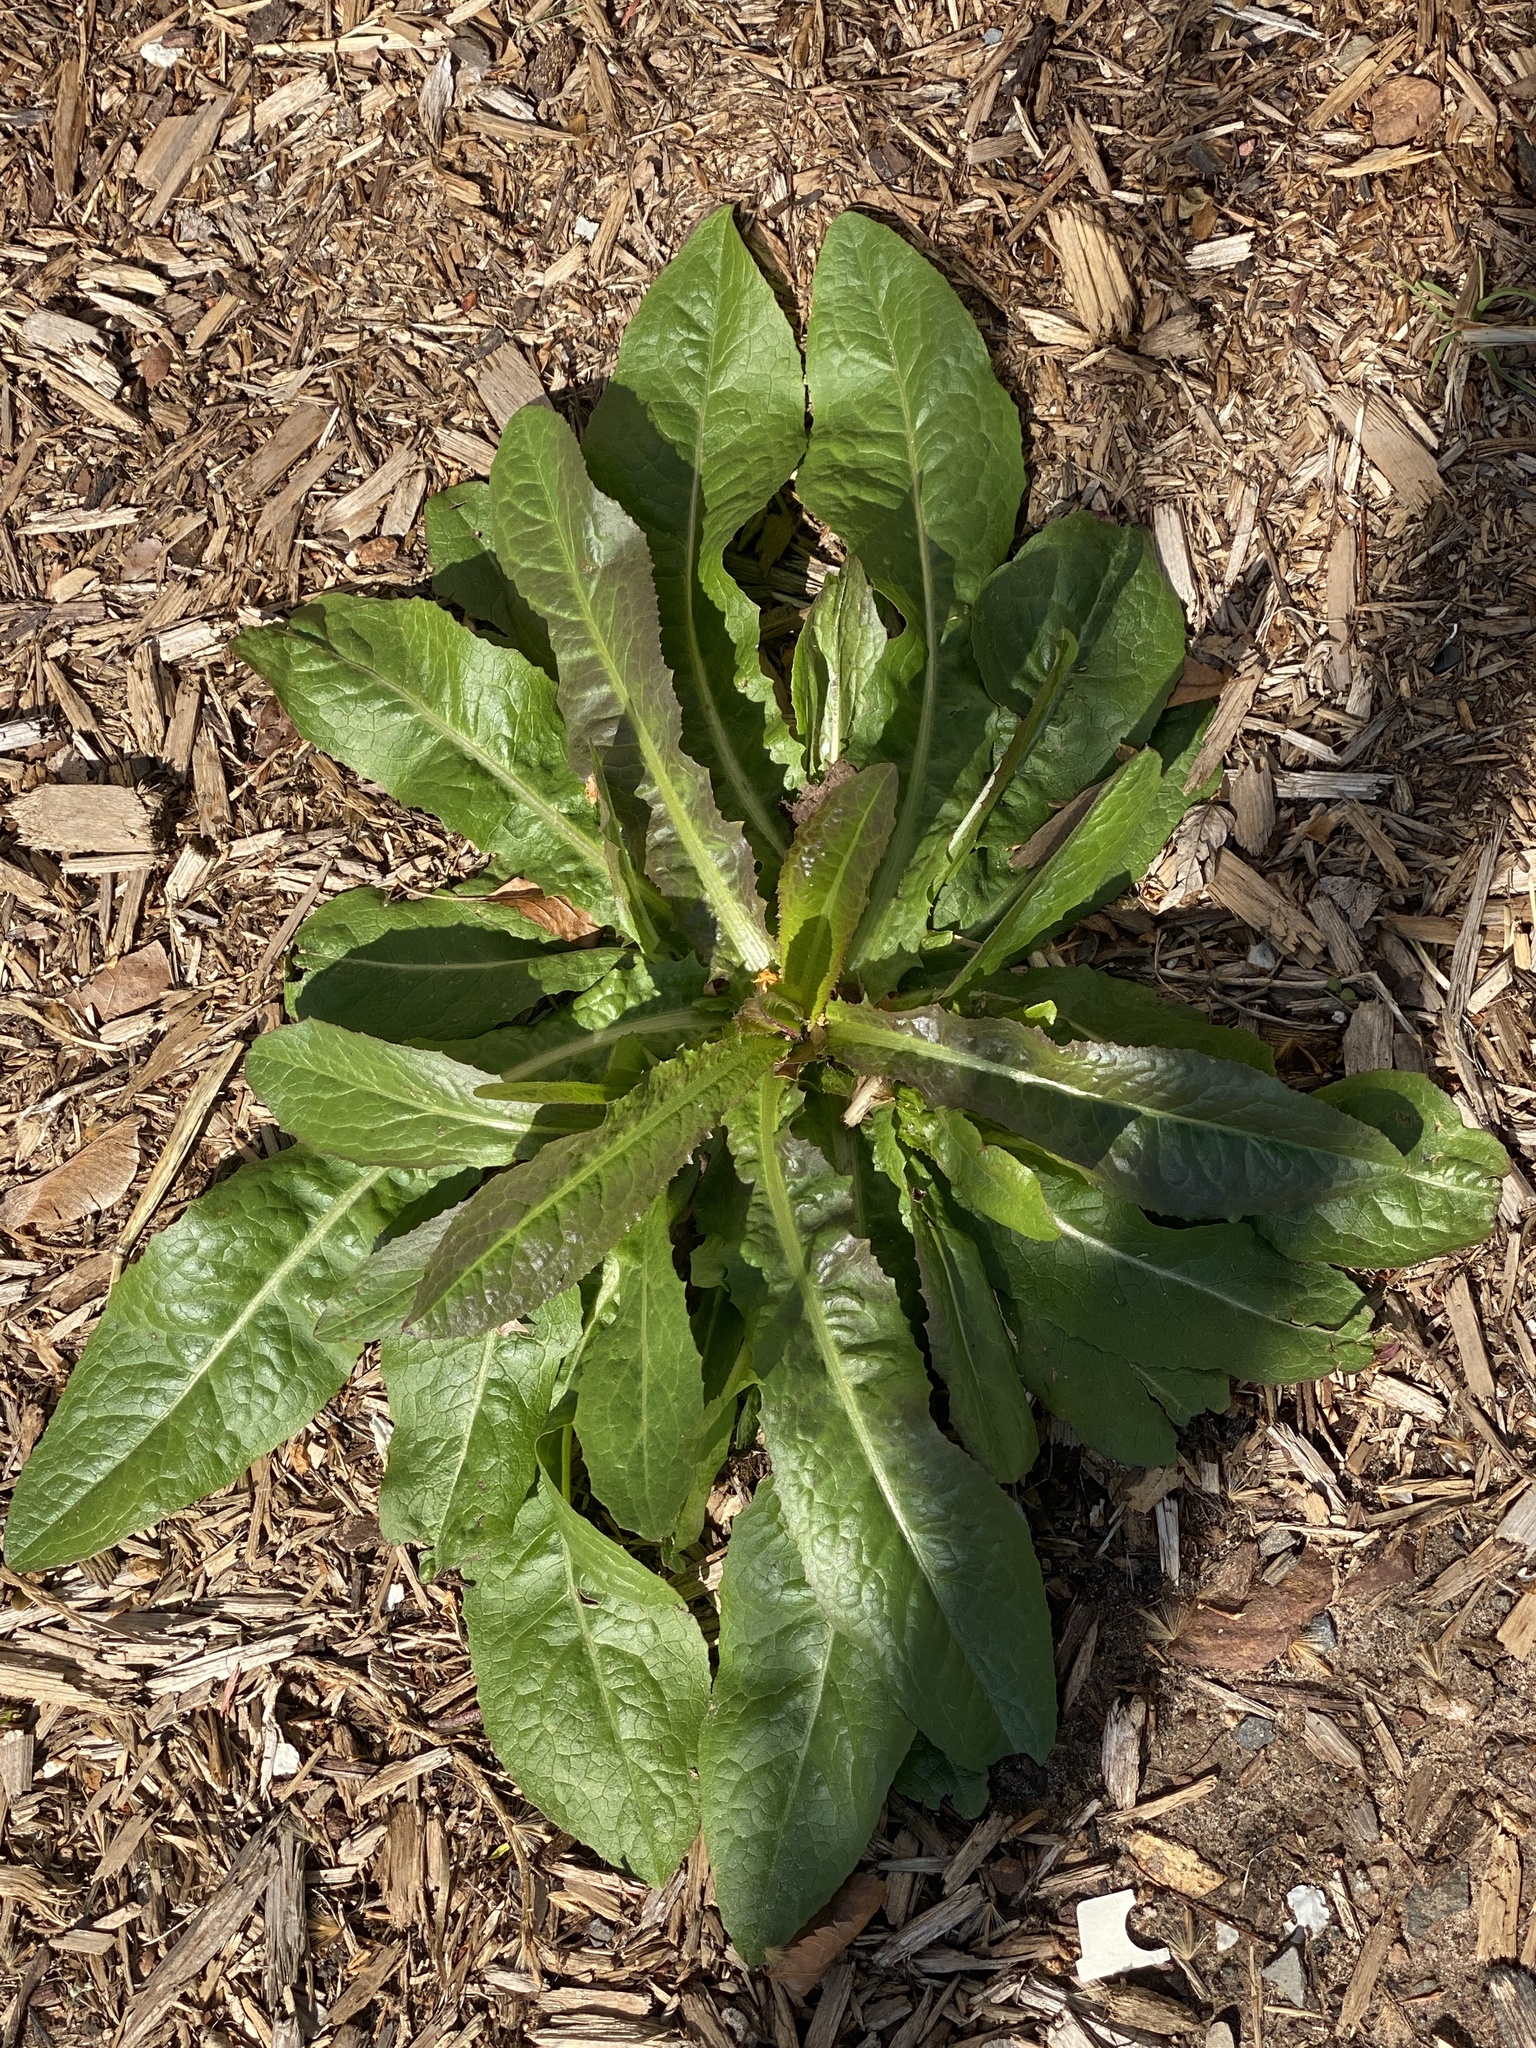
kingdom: Plantae
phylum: Tracheophyta
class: Magnoliopsida
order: Asterales
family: Asteraceae
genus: Lactuca
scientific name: Lactuca serriola
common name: Prickly lettuce
